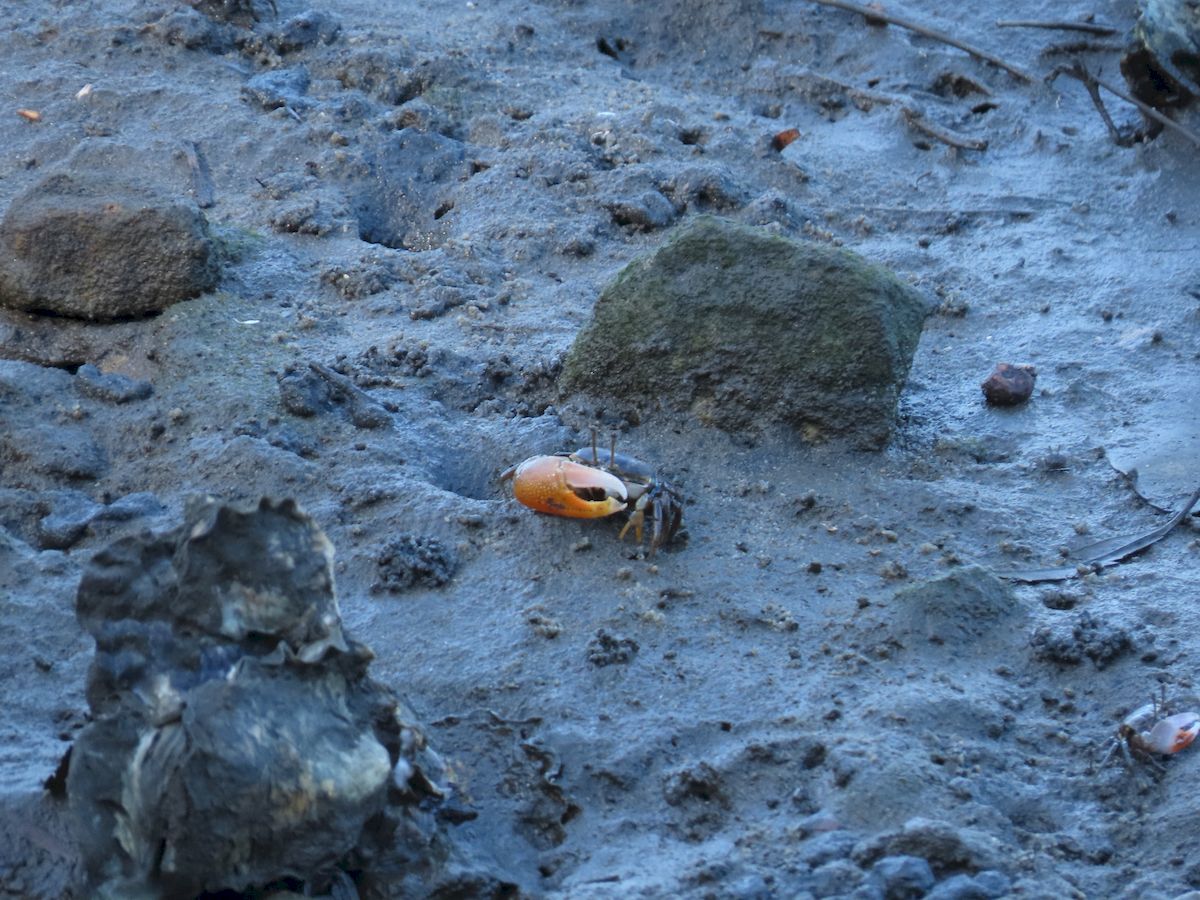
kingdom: Animalia
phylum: Arthropoda
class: Malacostraca
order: Decapoda
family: Ocypodidae
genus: Gelasimus
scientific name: Gelasimus vomeris
